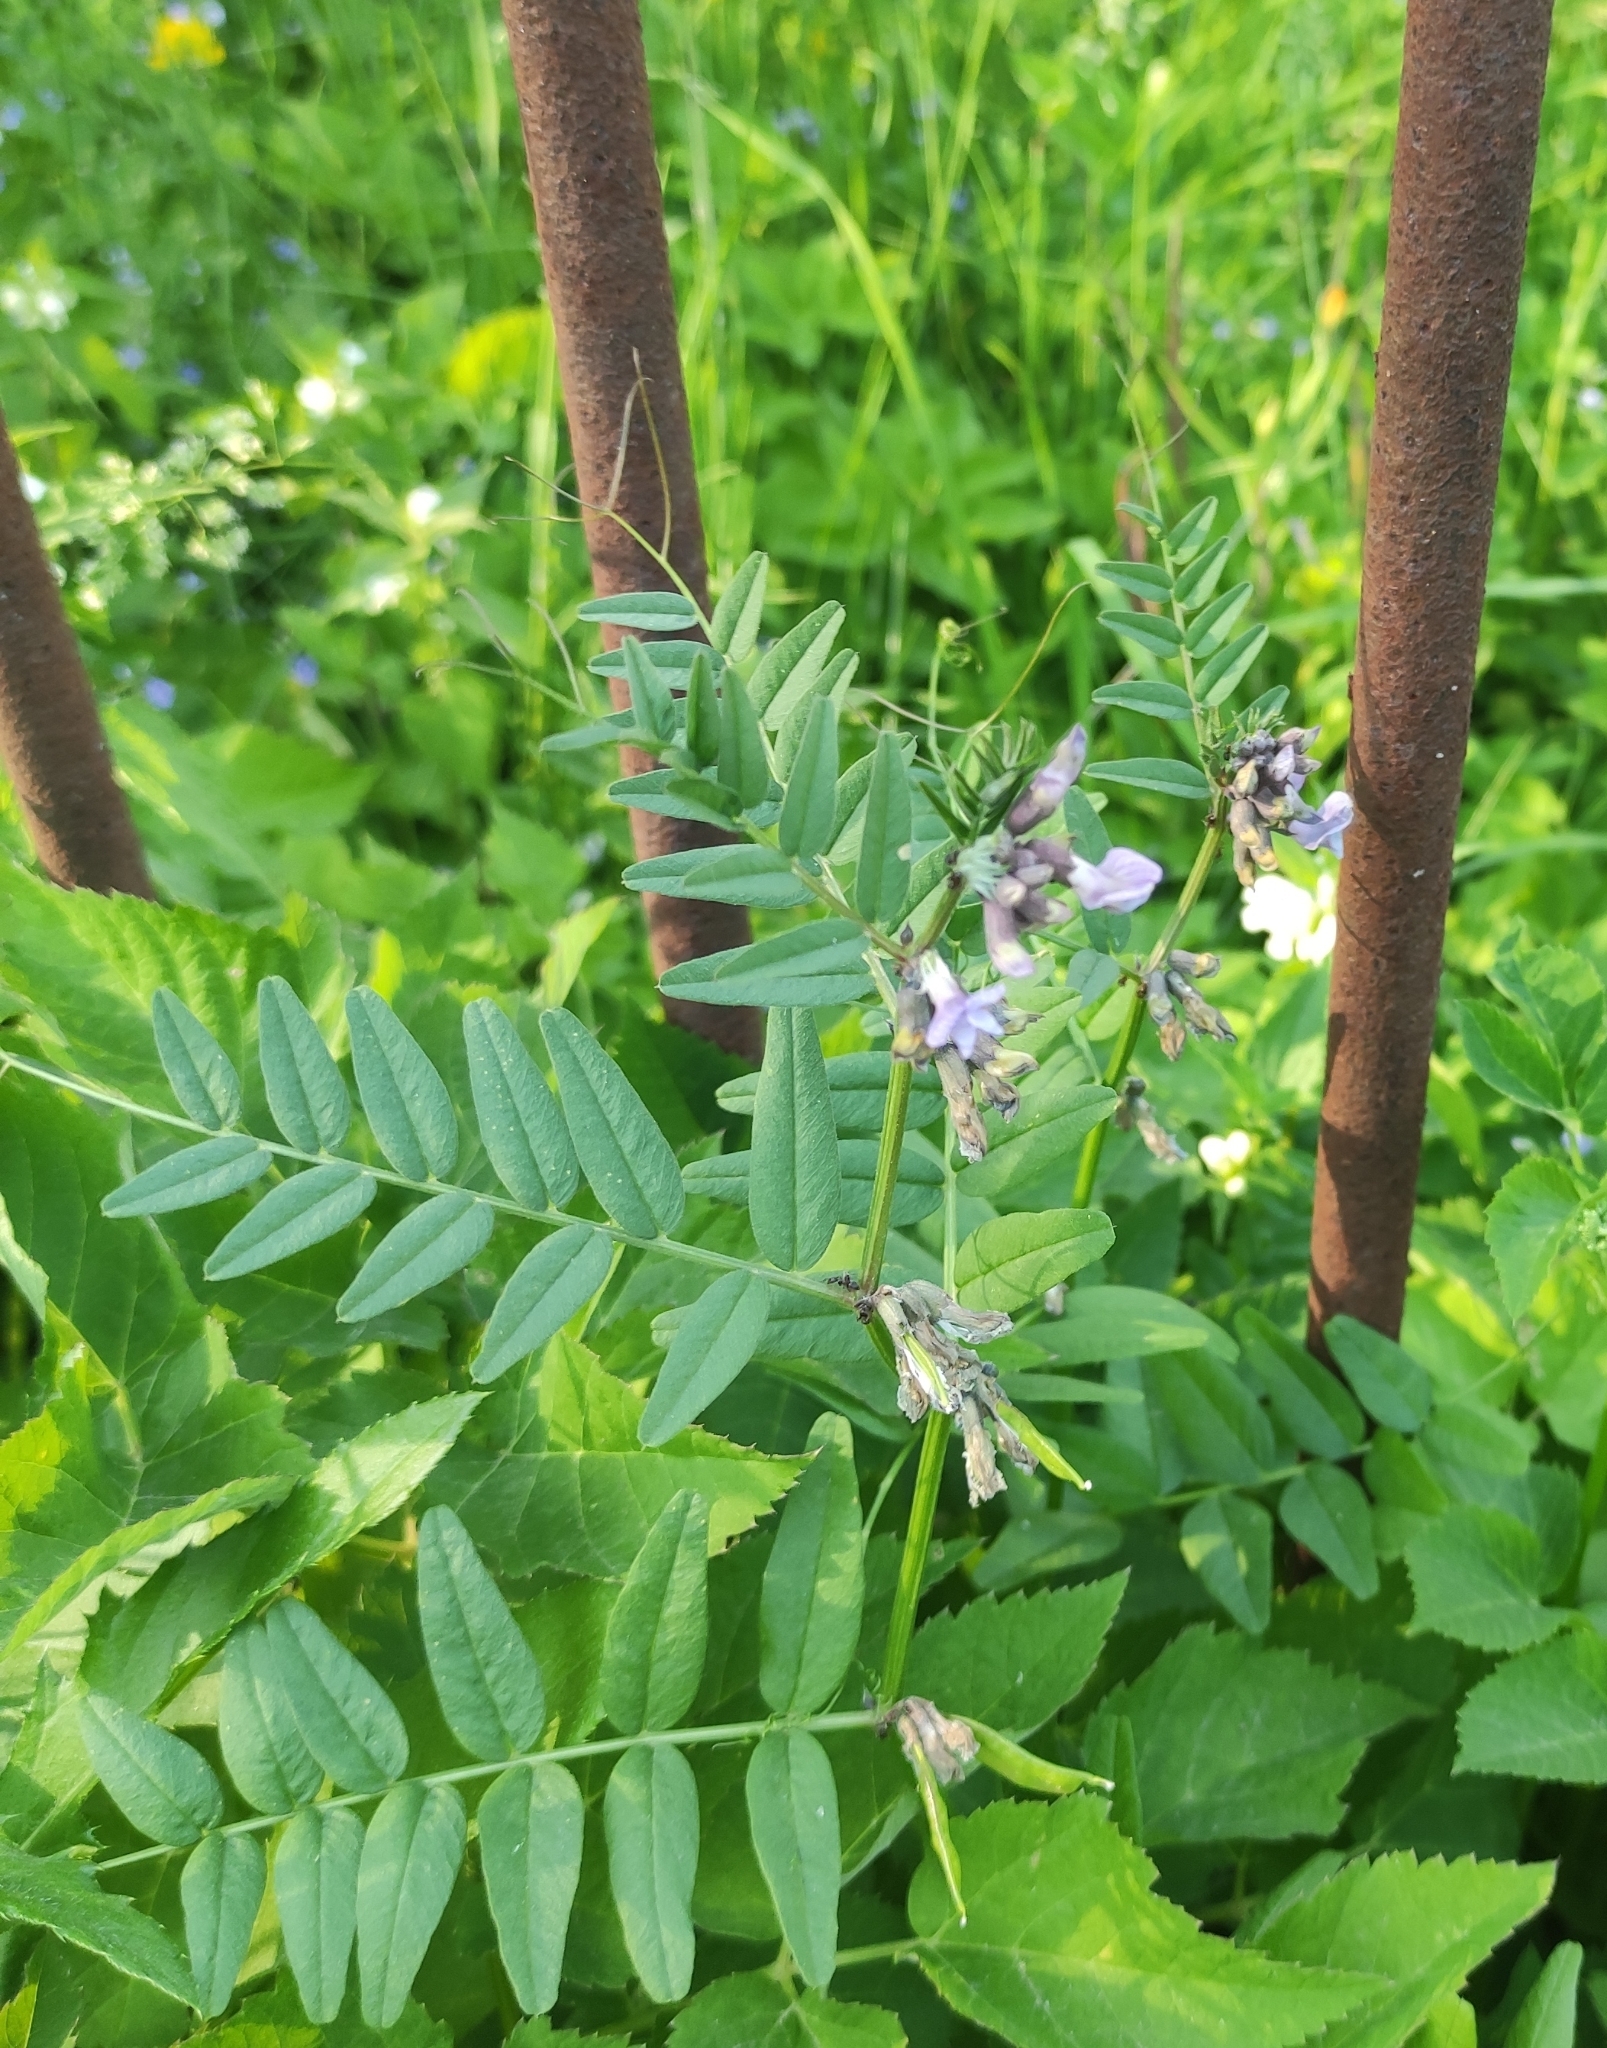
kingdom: Plantae
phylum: Tracheophyta
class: Magnoliopsida
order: Fabales
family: Fabaceae
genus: Vicia
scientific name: Vicia sepium
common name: Bush vetch
